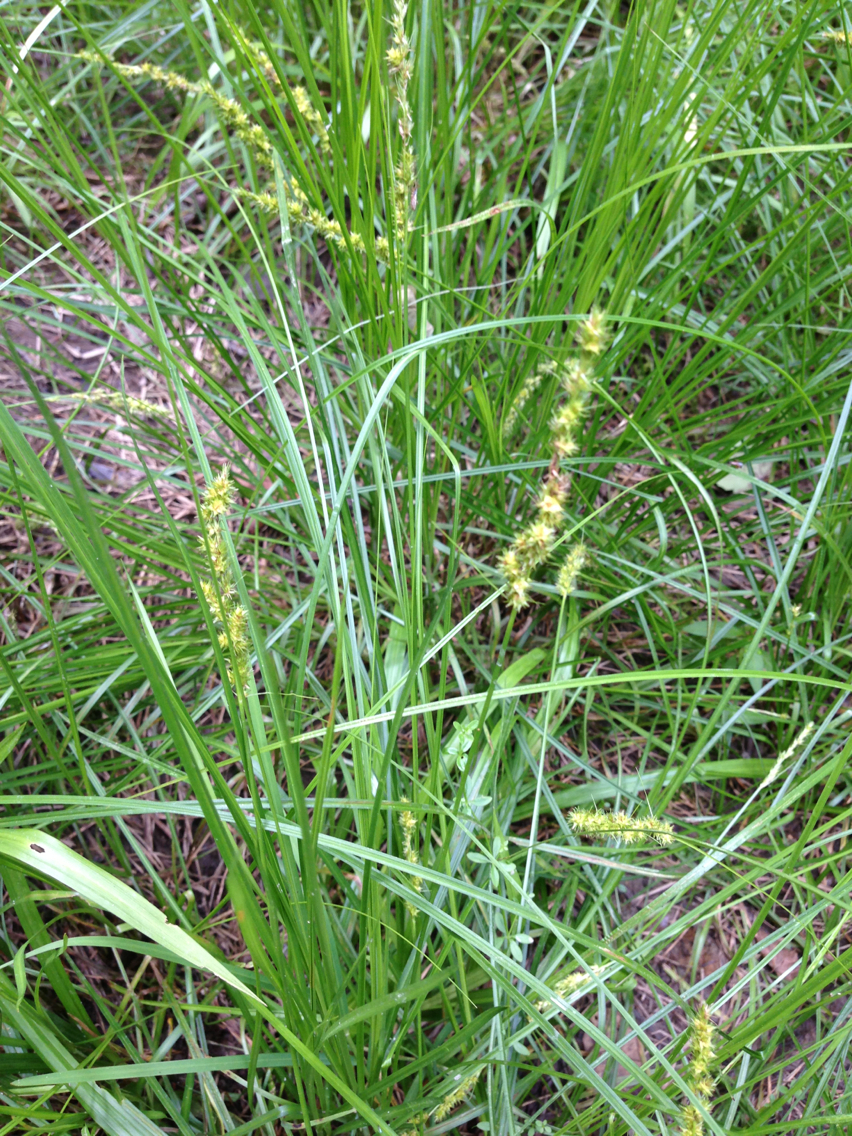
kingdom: Plantae
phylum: Tracheophyta
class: Liliopsida
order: Poales
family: Cyperaceae
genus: Carex
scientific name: Carex vulpinoidea
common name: American fox-sedge
